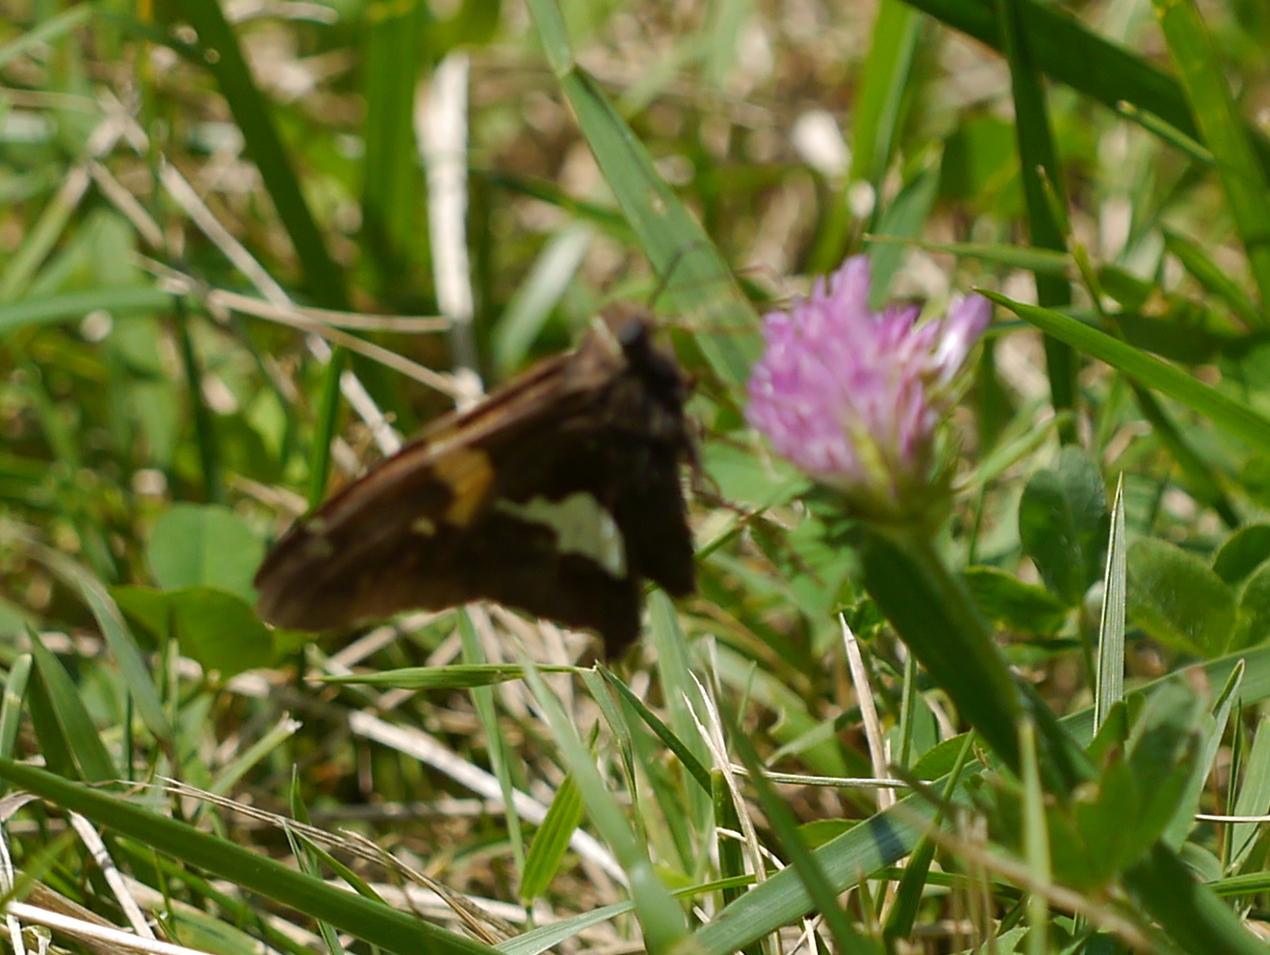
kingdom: Animalia
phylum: Arthropoda
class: Insecta
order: Lepidoptera
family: Hesperiidae
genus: Epargyreus
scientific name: Epargyreus clarus
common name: Silver-spotted skipper
